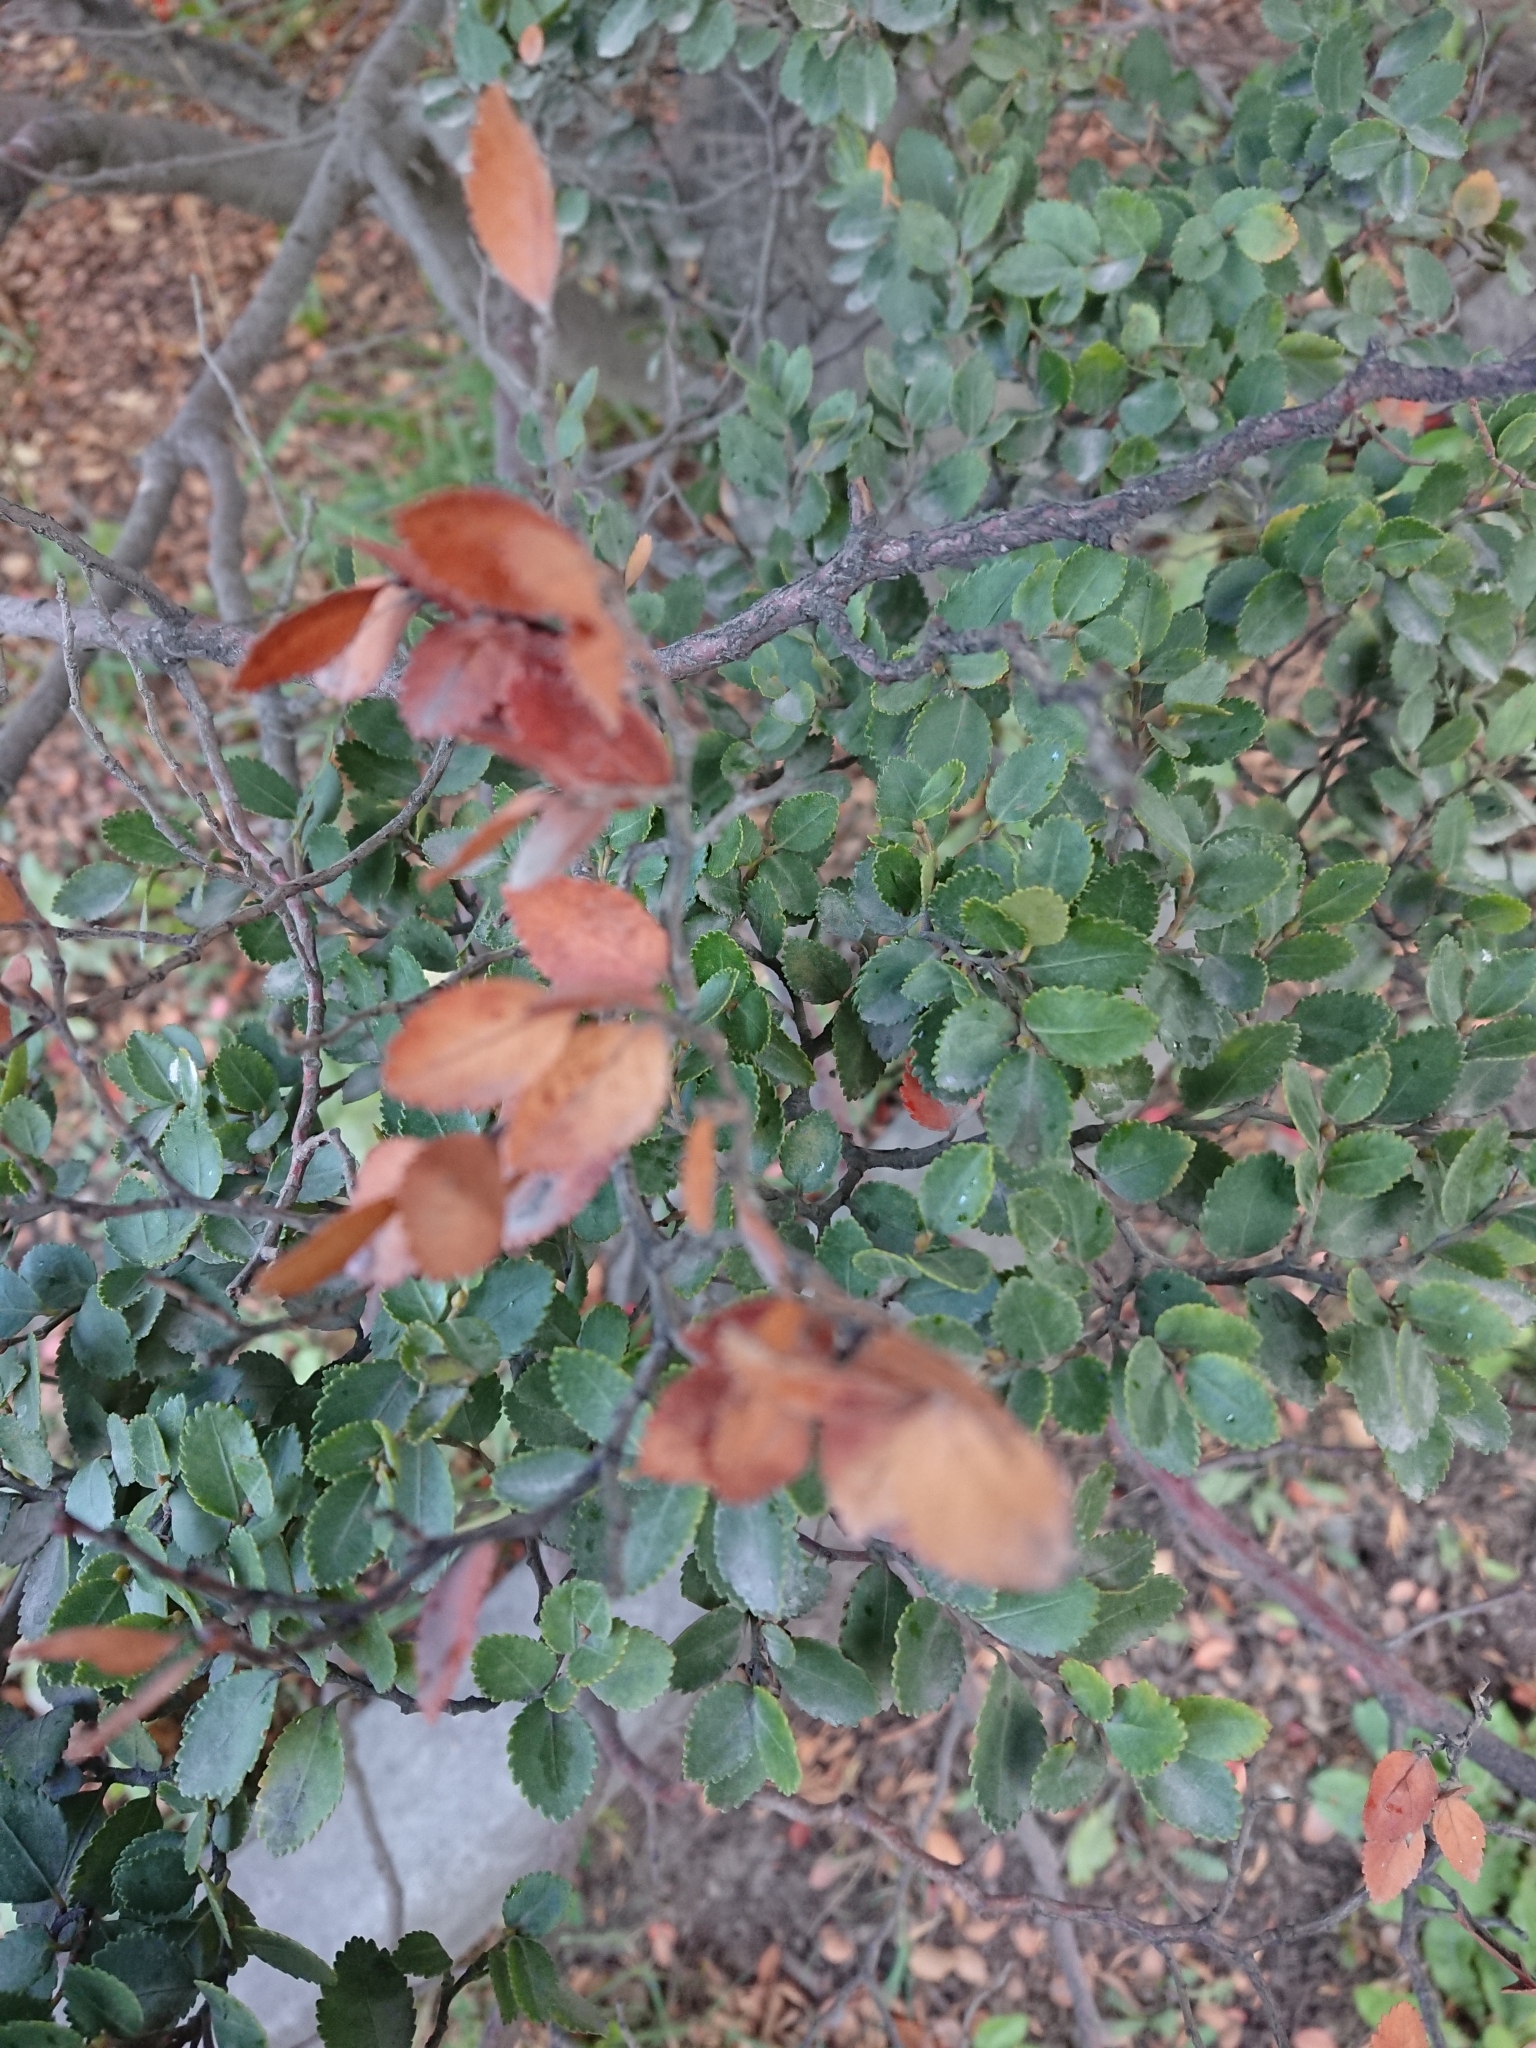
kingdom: Plantae
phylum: Tracheophyta
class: Magnoliopsida
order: Fagales
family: Nothofagaceae
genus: Nothofagus
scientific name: Nothofagus betuloides
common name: Magellan's beech
